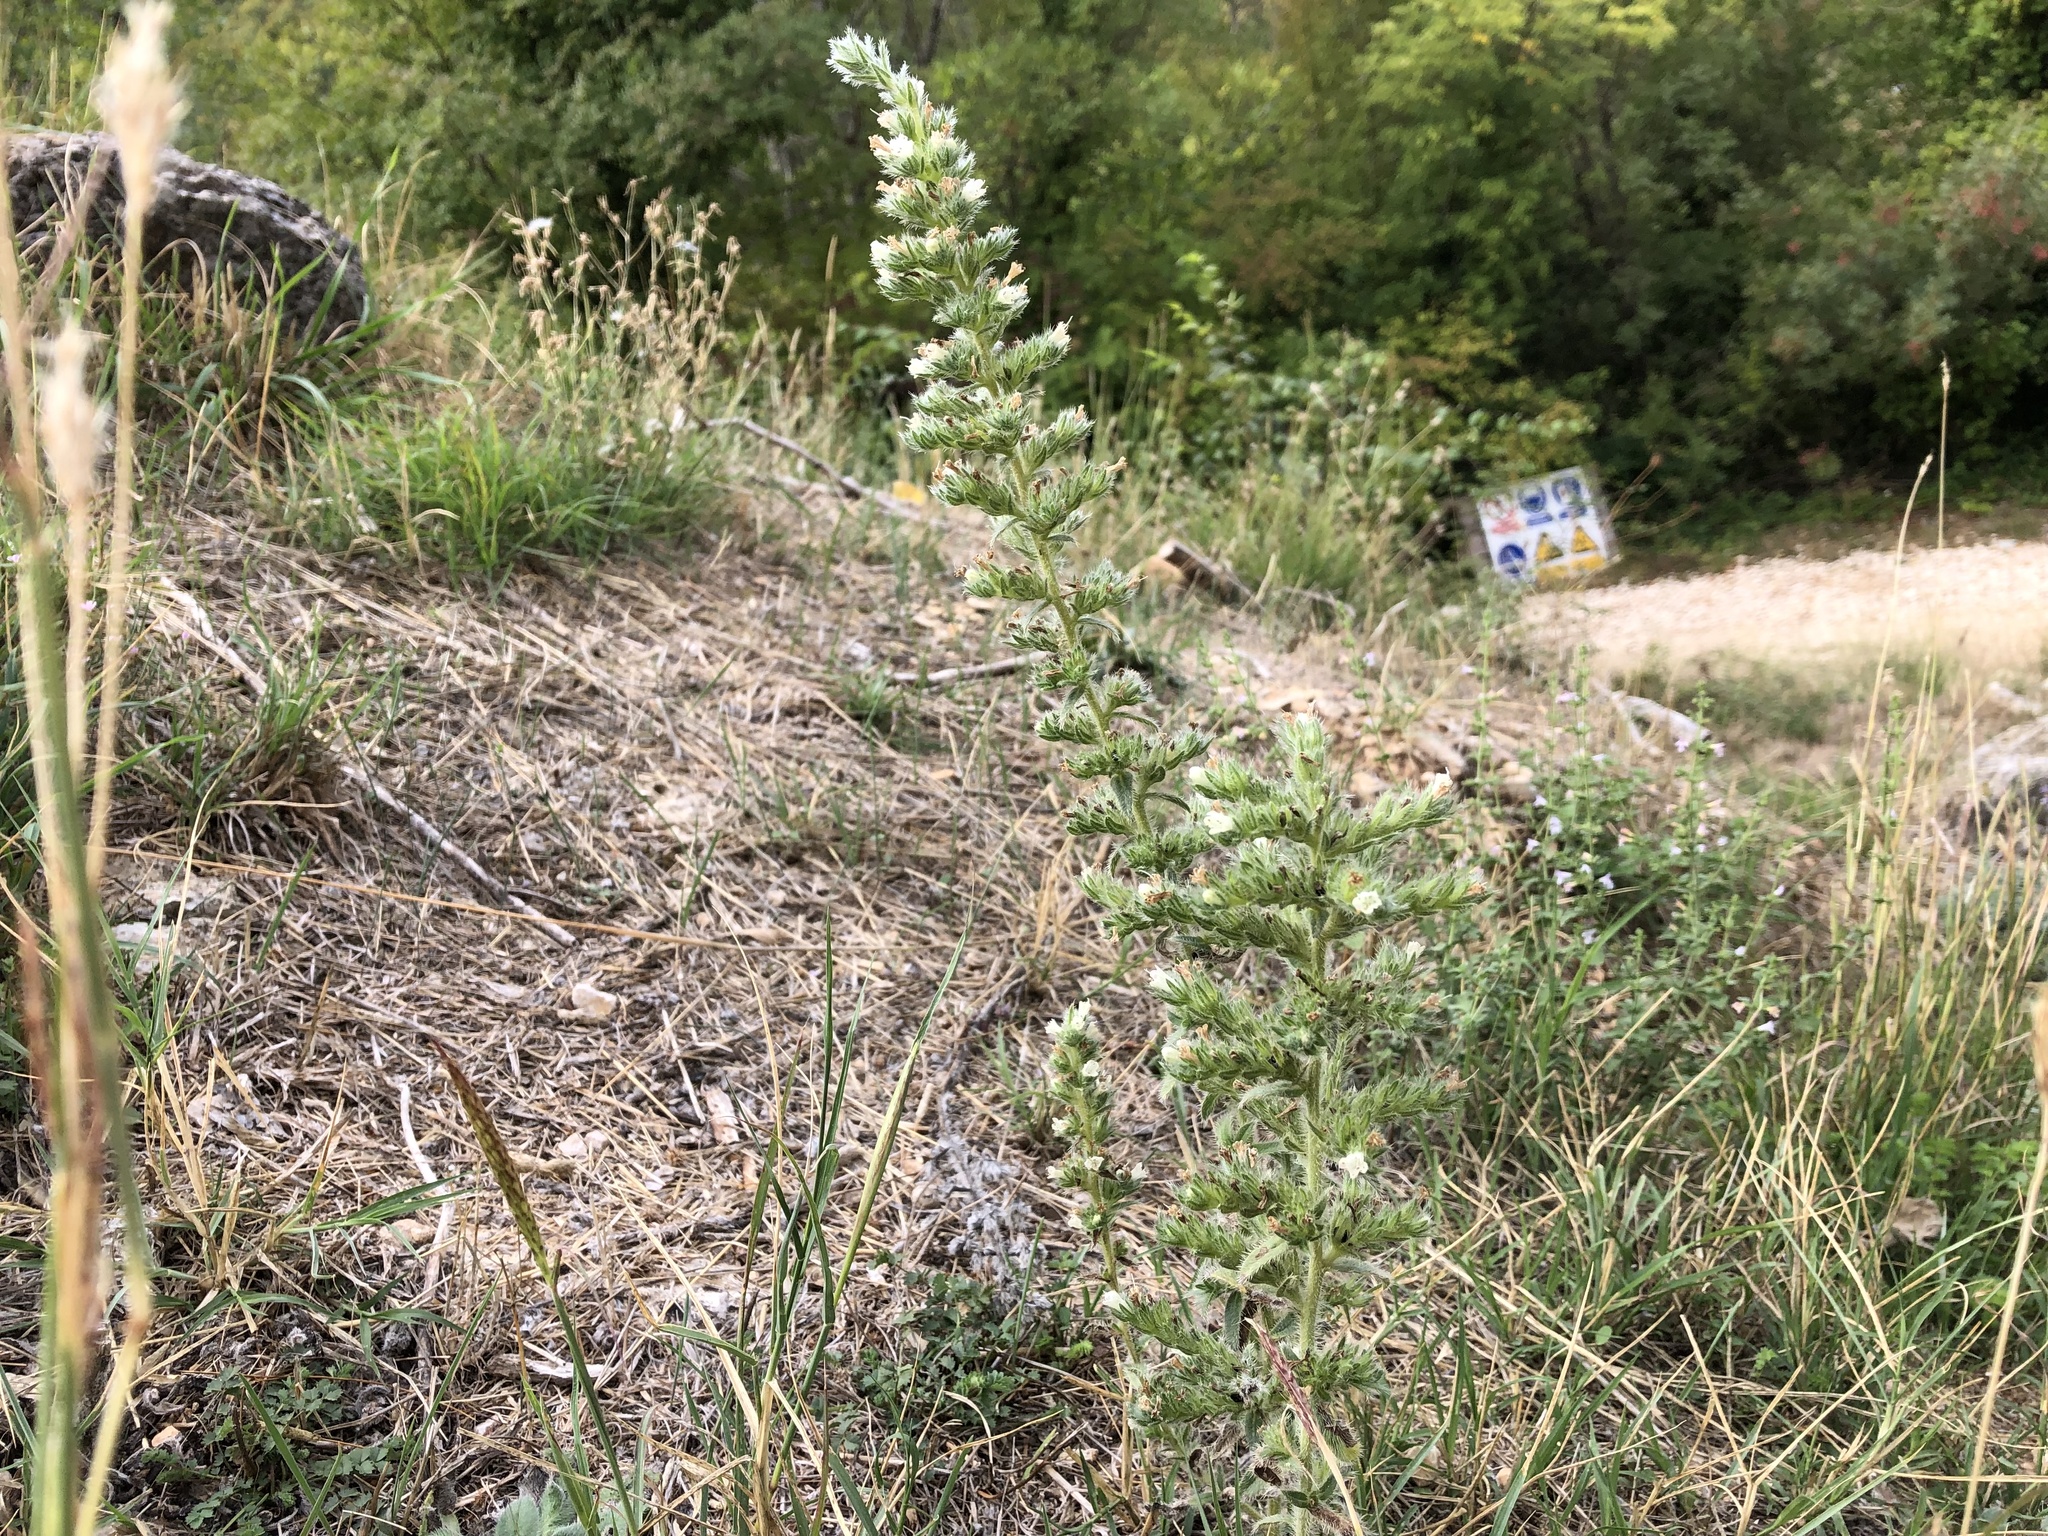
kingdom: Plantae
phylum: Tracheophyta
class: Magnoliopsida
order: Boraginales
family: Boraginaceae
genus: Echium
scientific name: Echium italicum
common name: Italian viper's bugloss
